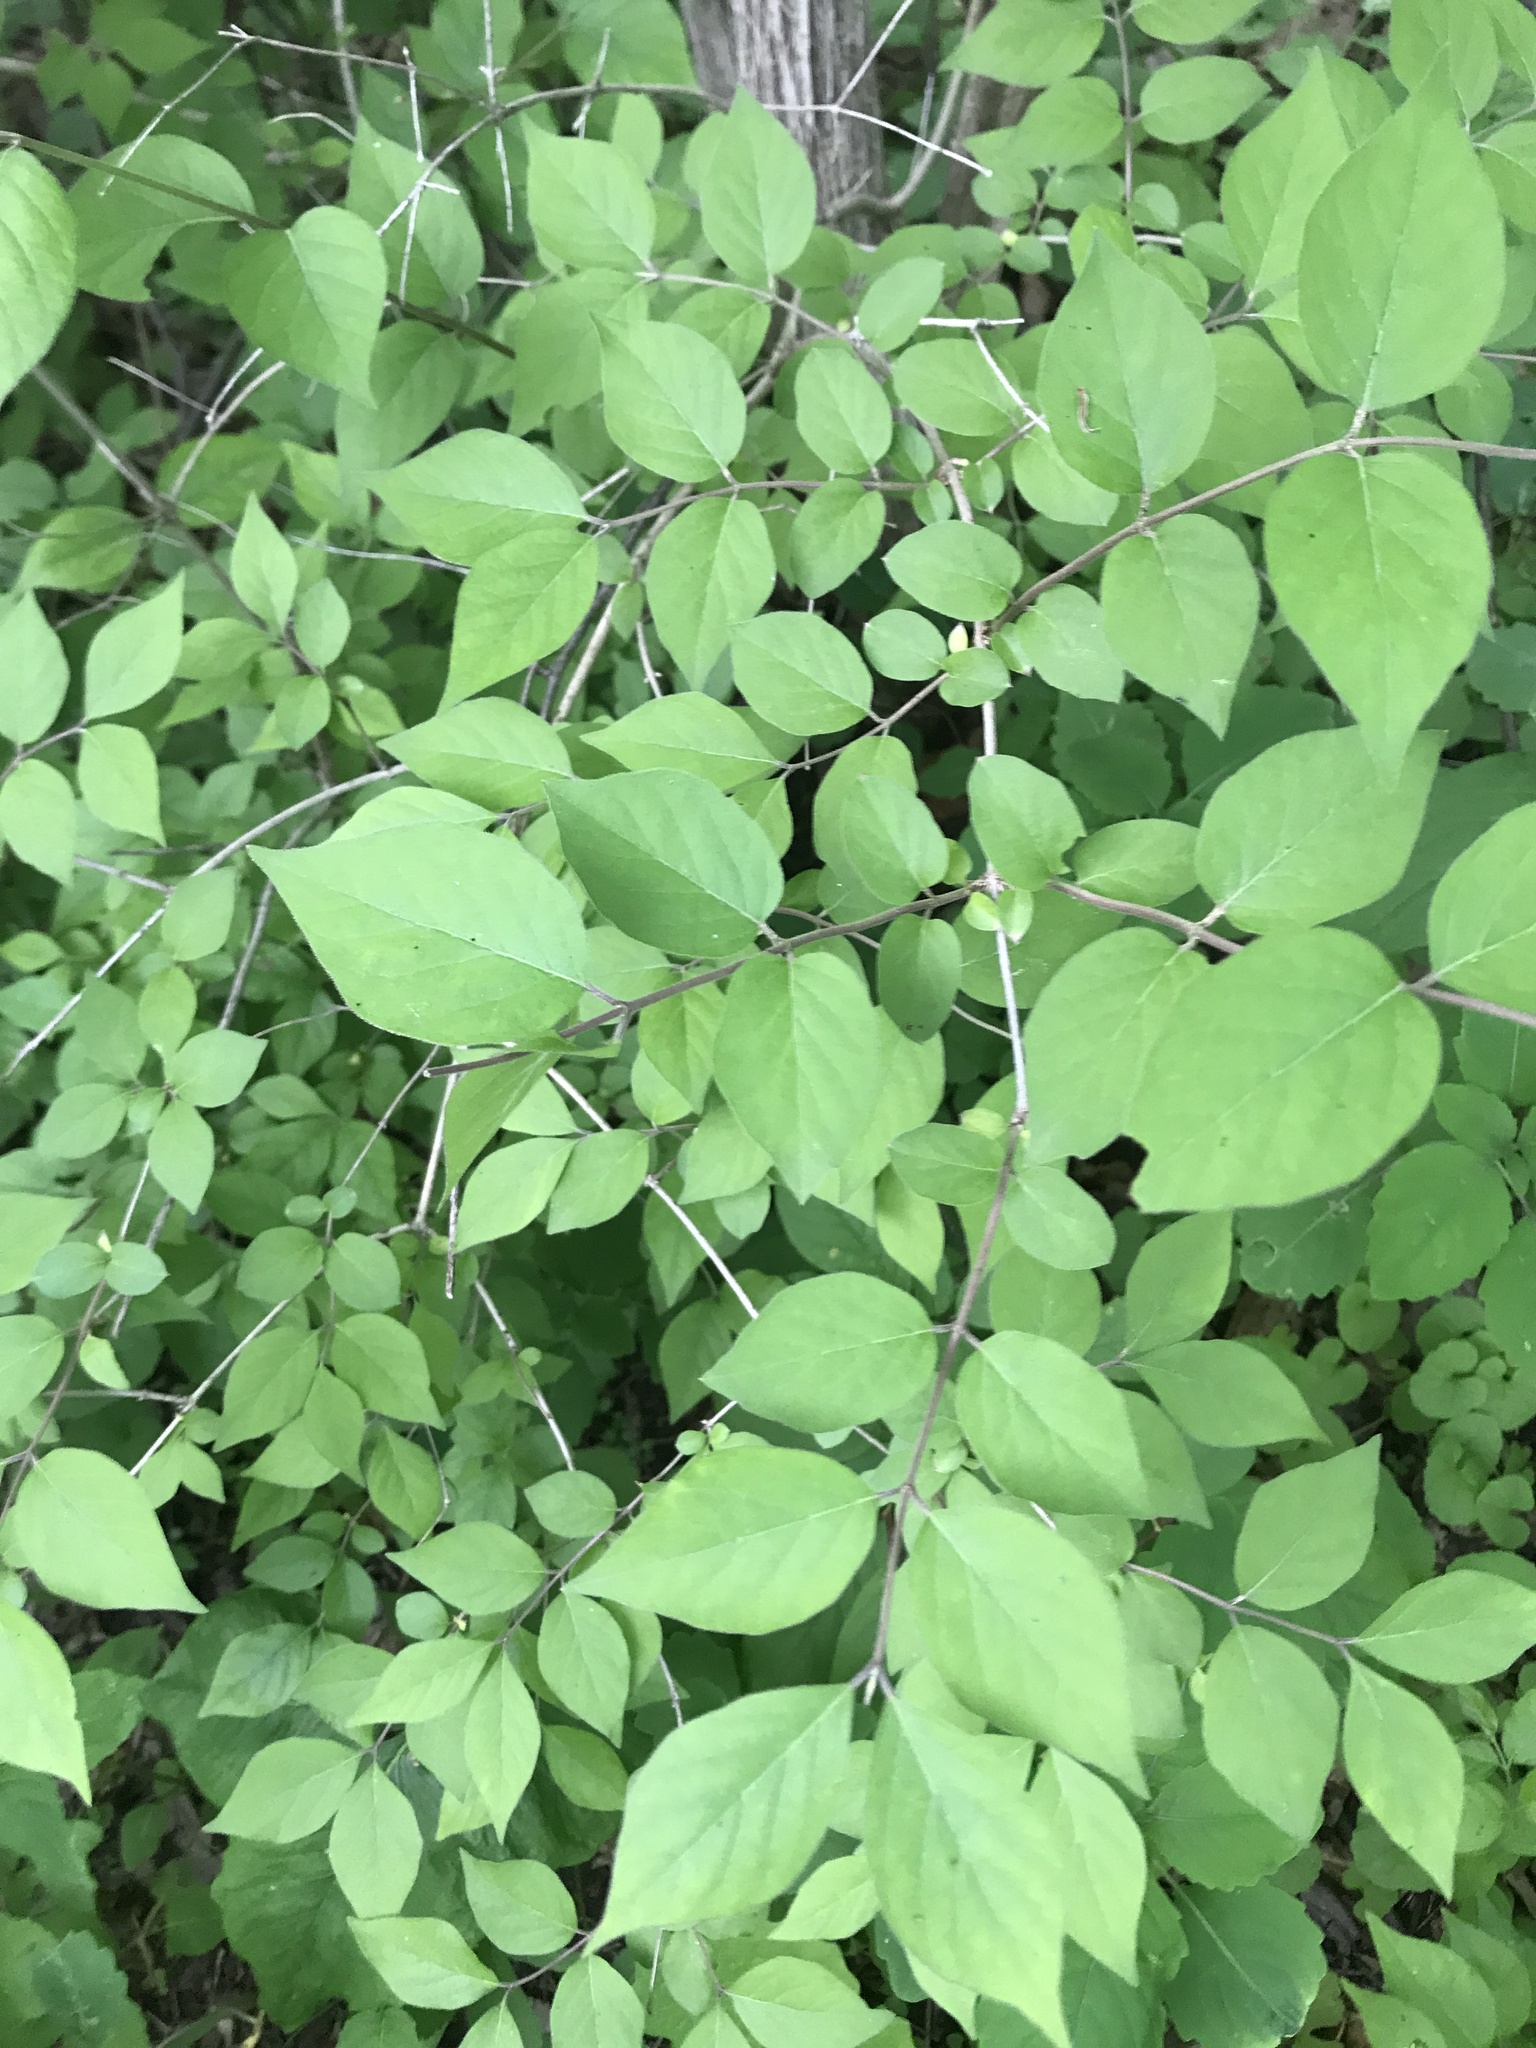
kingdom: Plantae
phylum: Tracheophyta
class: Magnoliopsida
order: Dipsacales
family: Caprifoliaceae
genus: Lonicera
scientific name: Lonicera maackii
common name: Amur honeysuckle
